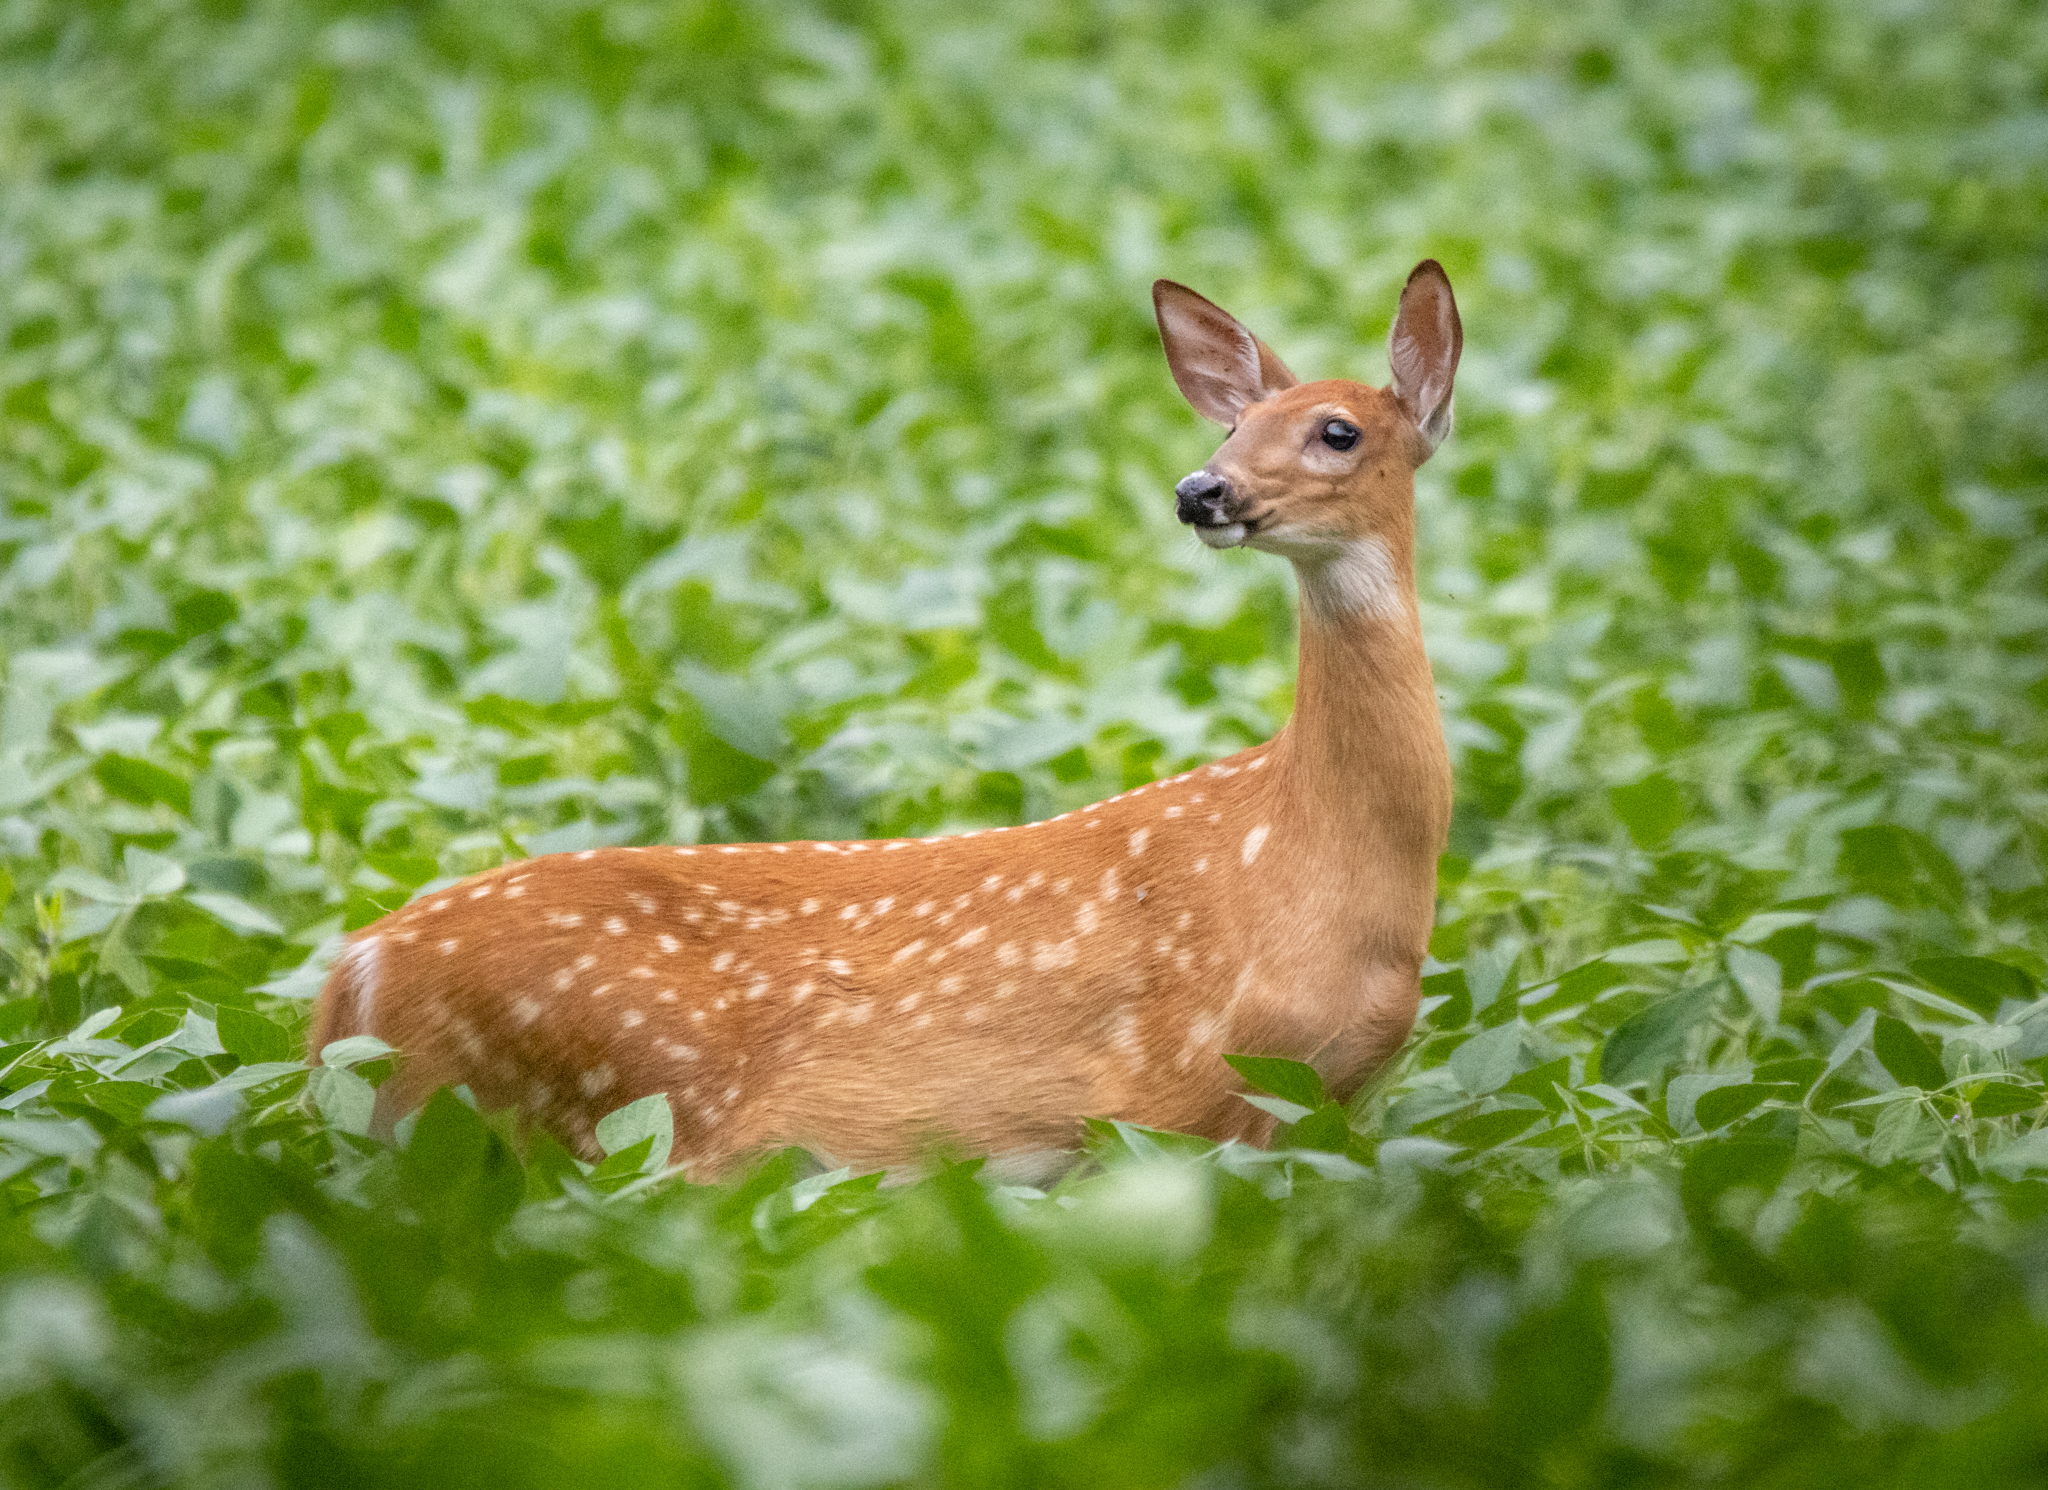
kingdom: Animalia
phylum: Chordata
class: Mammalia
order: Artiodactyla
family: Cervidae
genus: Odocoileus
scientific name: Odocoileus virginianus
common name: White-tailed deer
